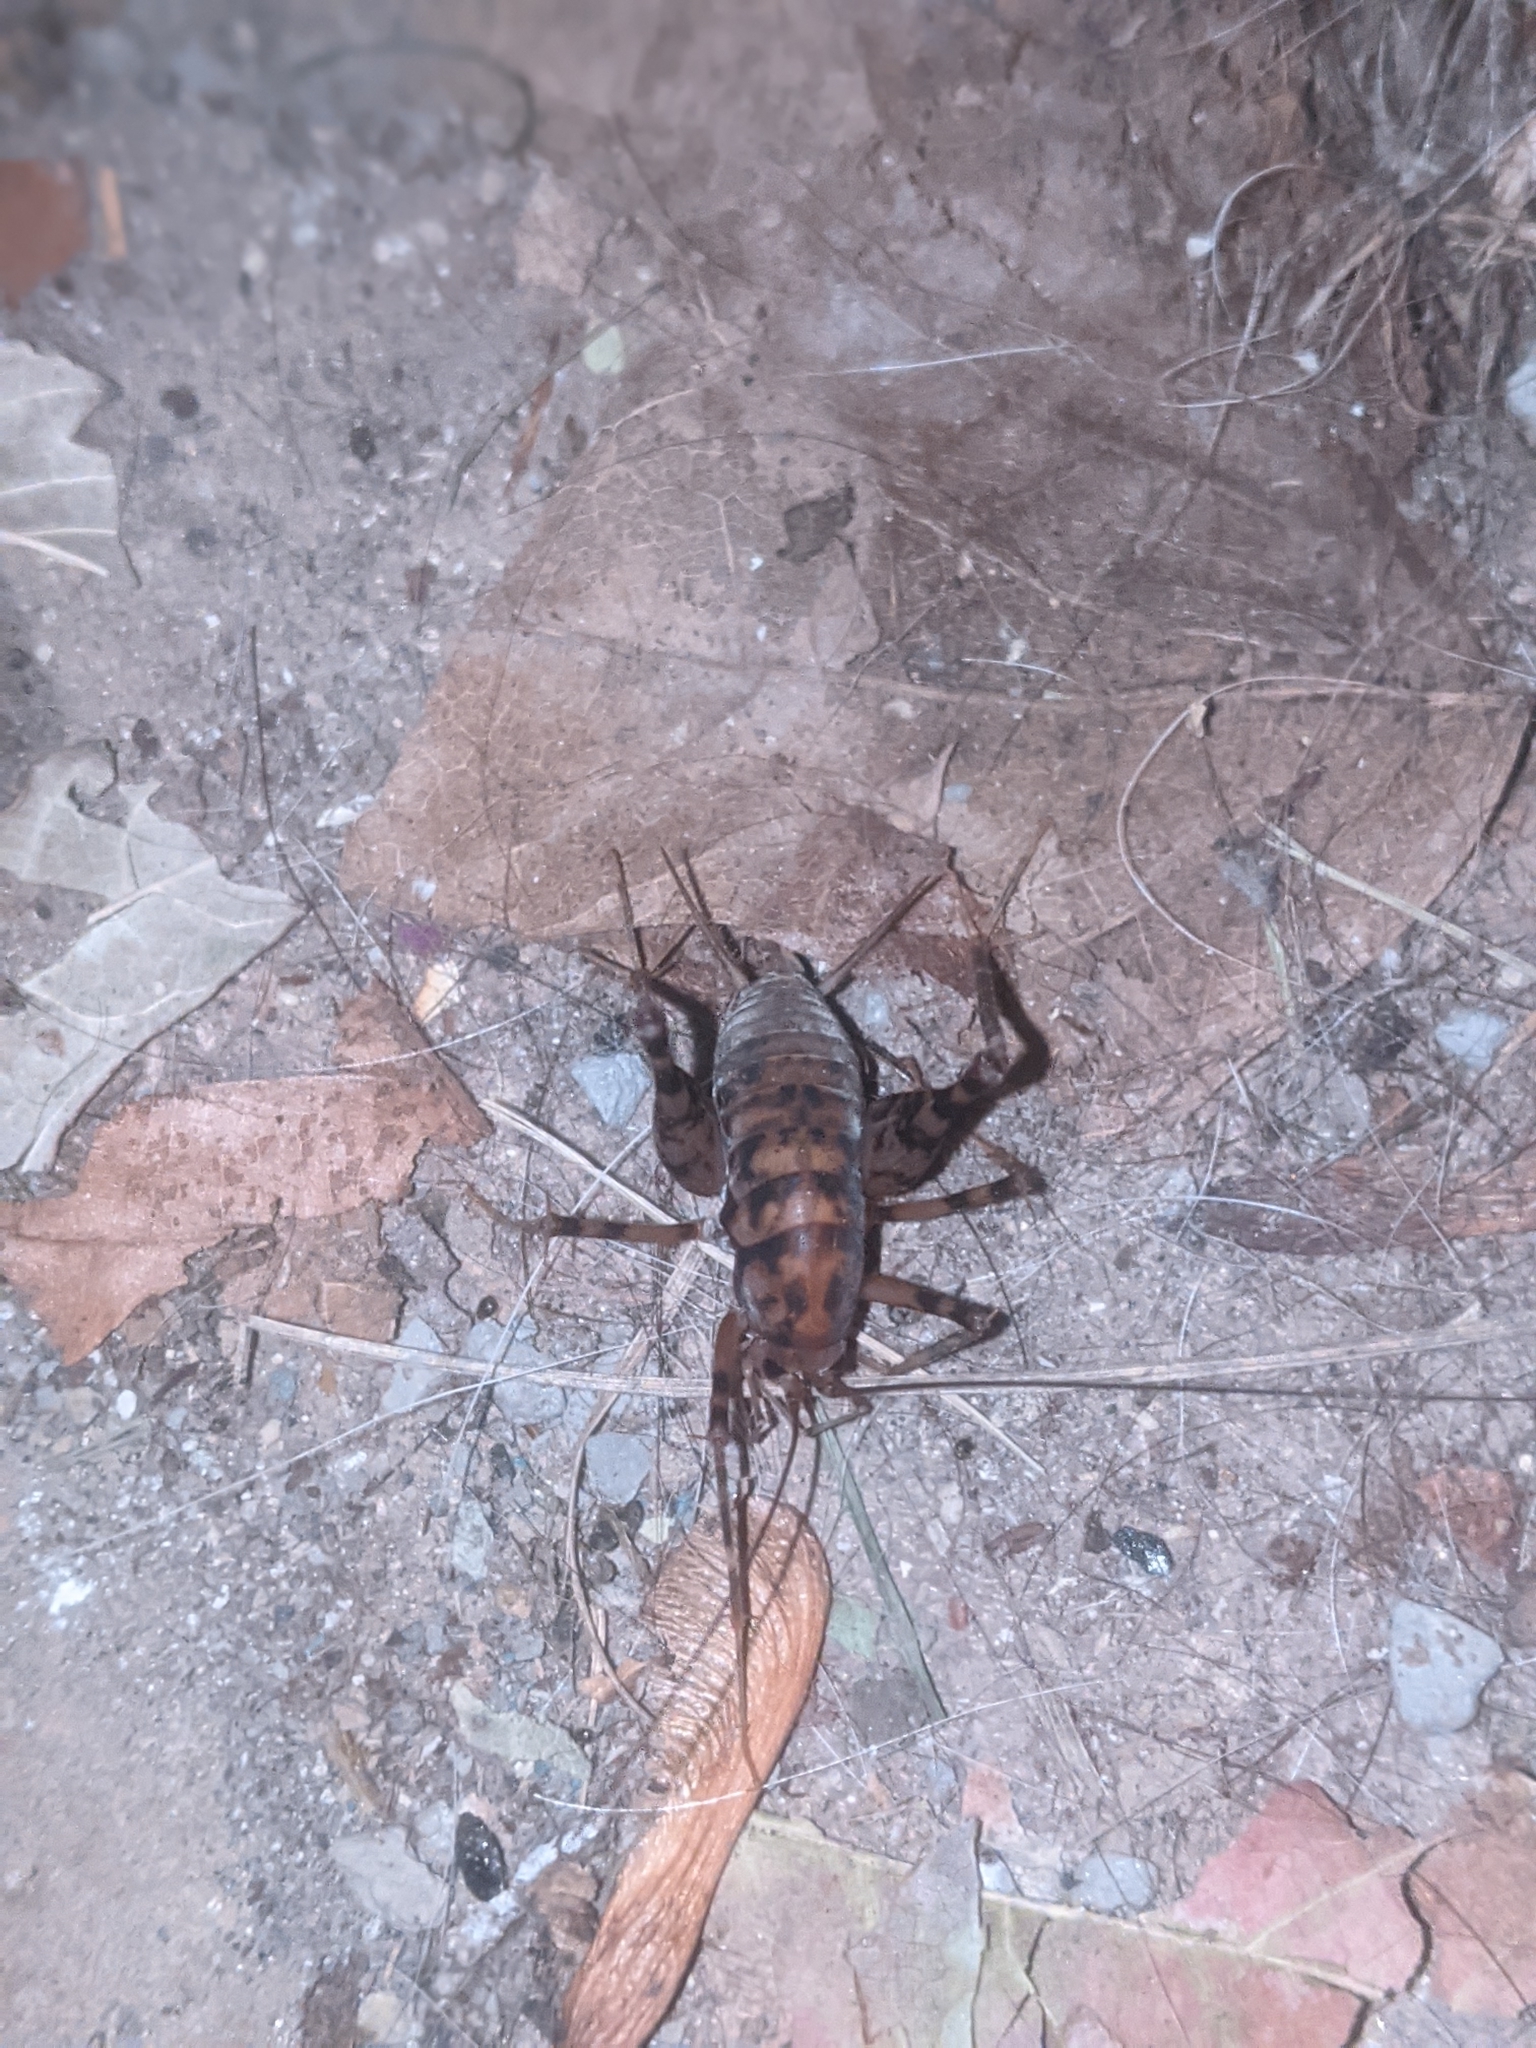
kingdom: Animalia
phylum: Arthropoda
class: Insecta
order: Orthoptera
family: Rhaphidophoridae
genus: Tachycines
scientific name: Tachycines asynamorus
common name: Greenhouse camel cricket
